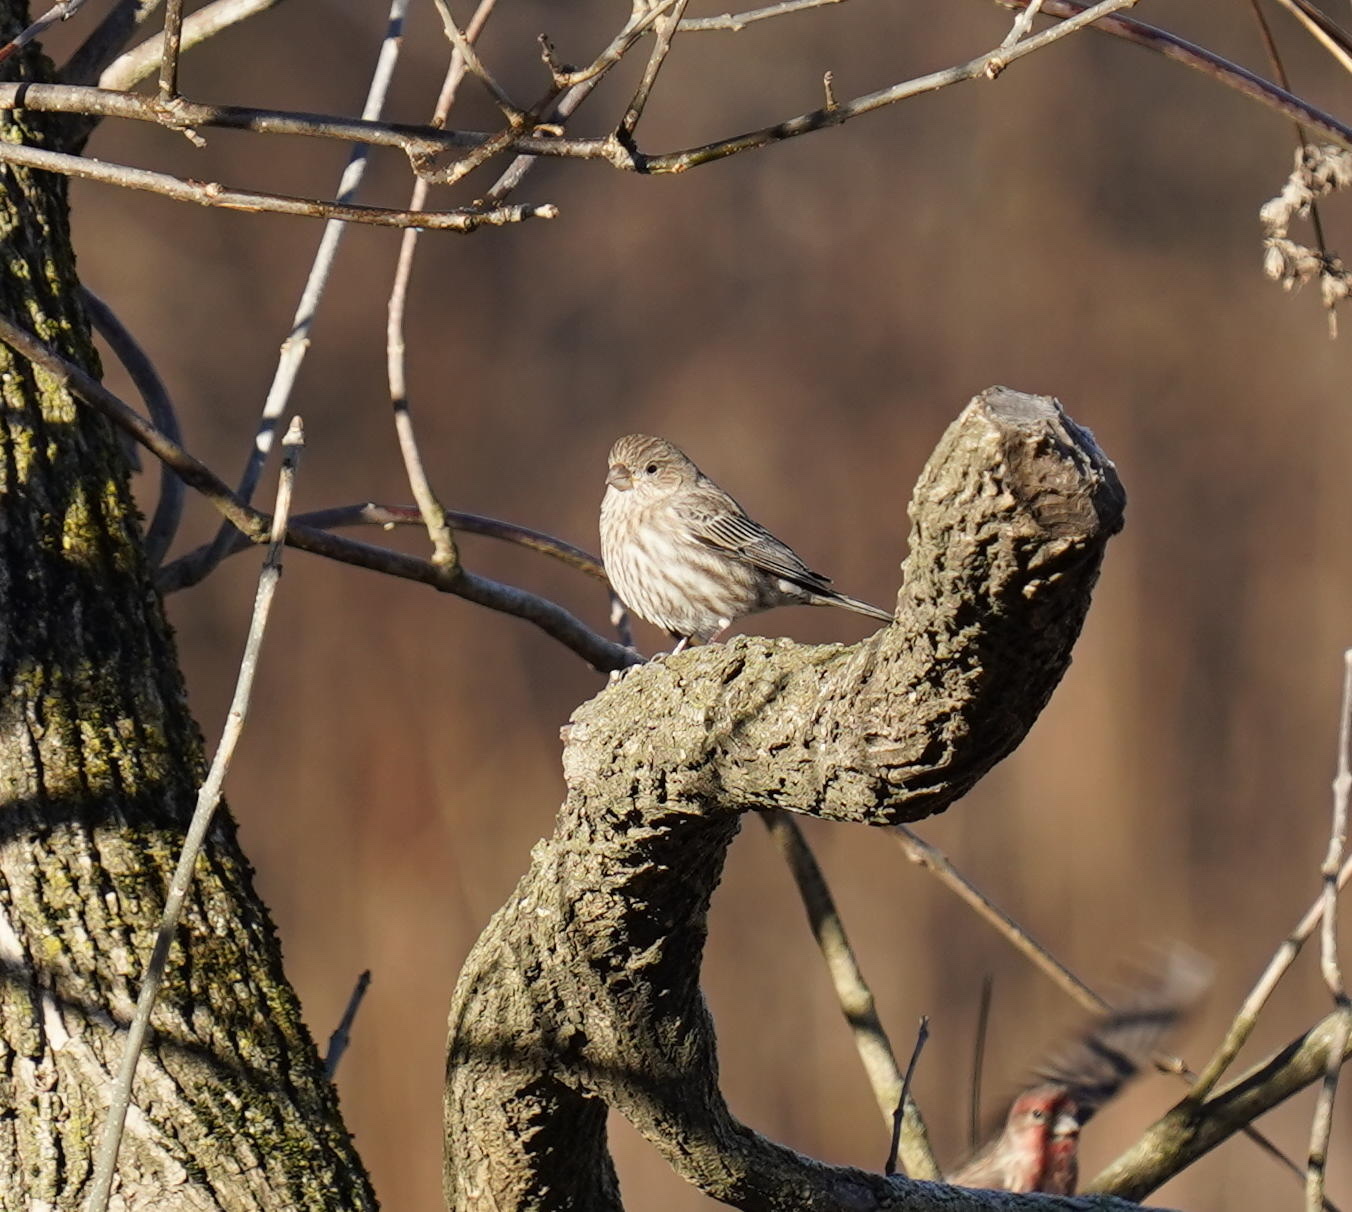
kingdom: Animalia
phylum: Chordata
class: Aves
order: Passeriformes
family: Fringillidae
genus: Haemorhous
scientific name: Haemorhous mexicanus
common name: House finch
